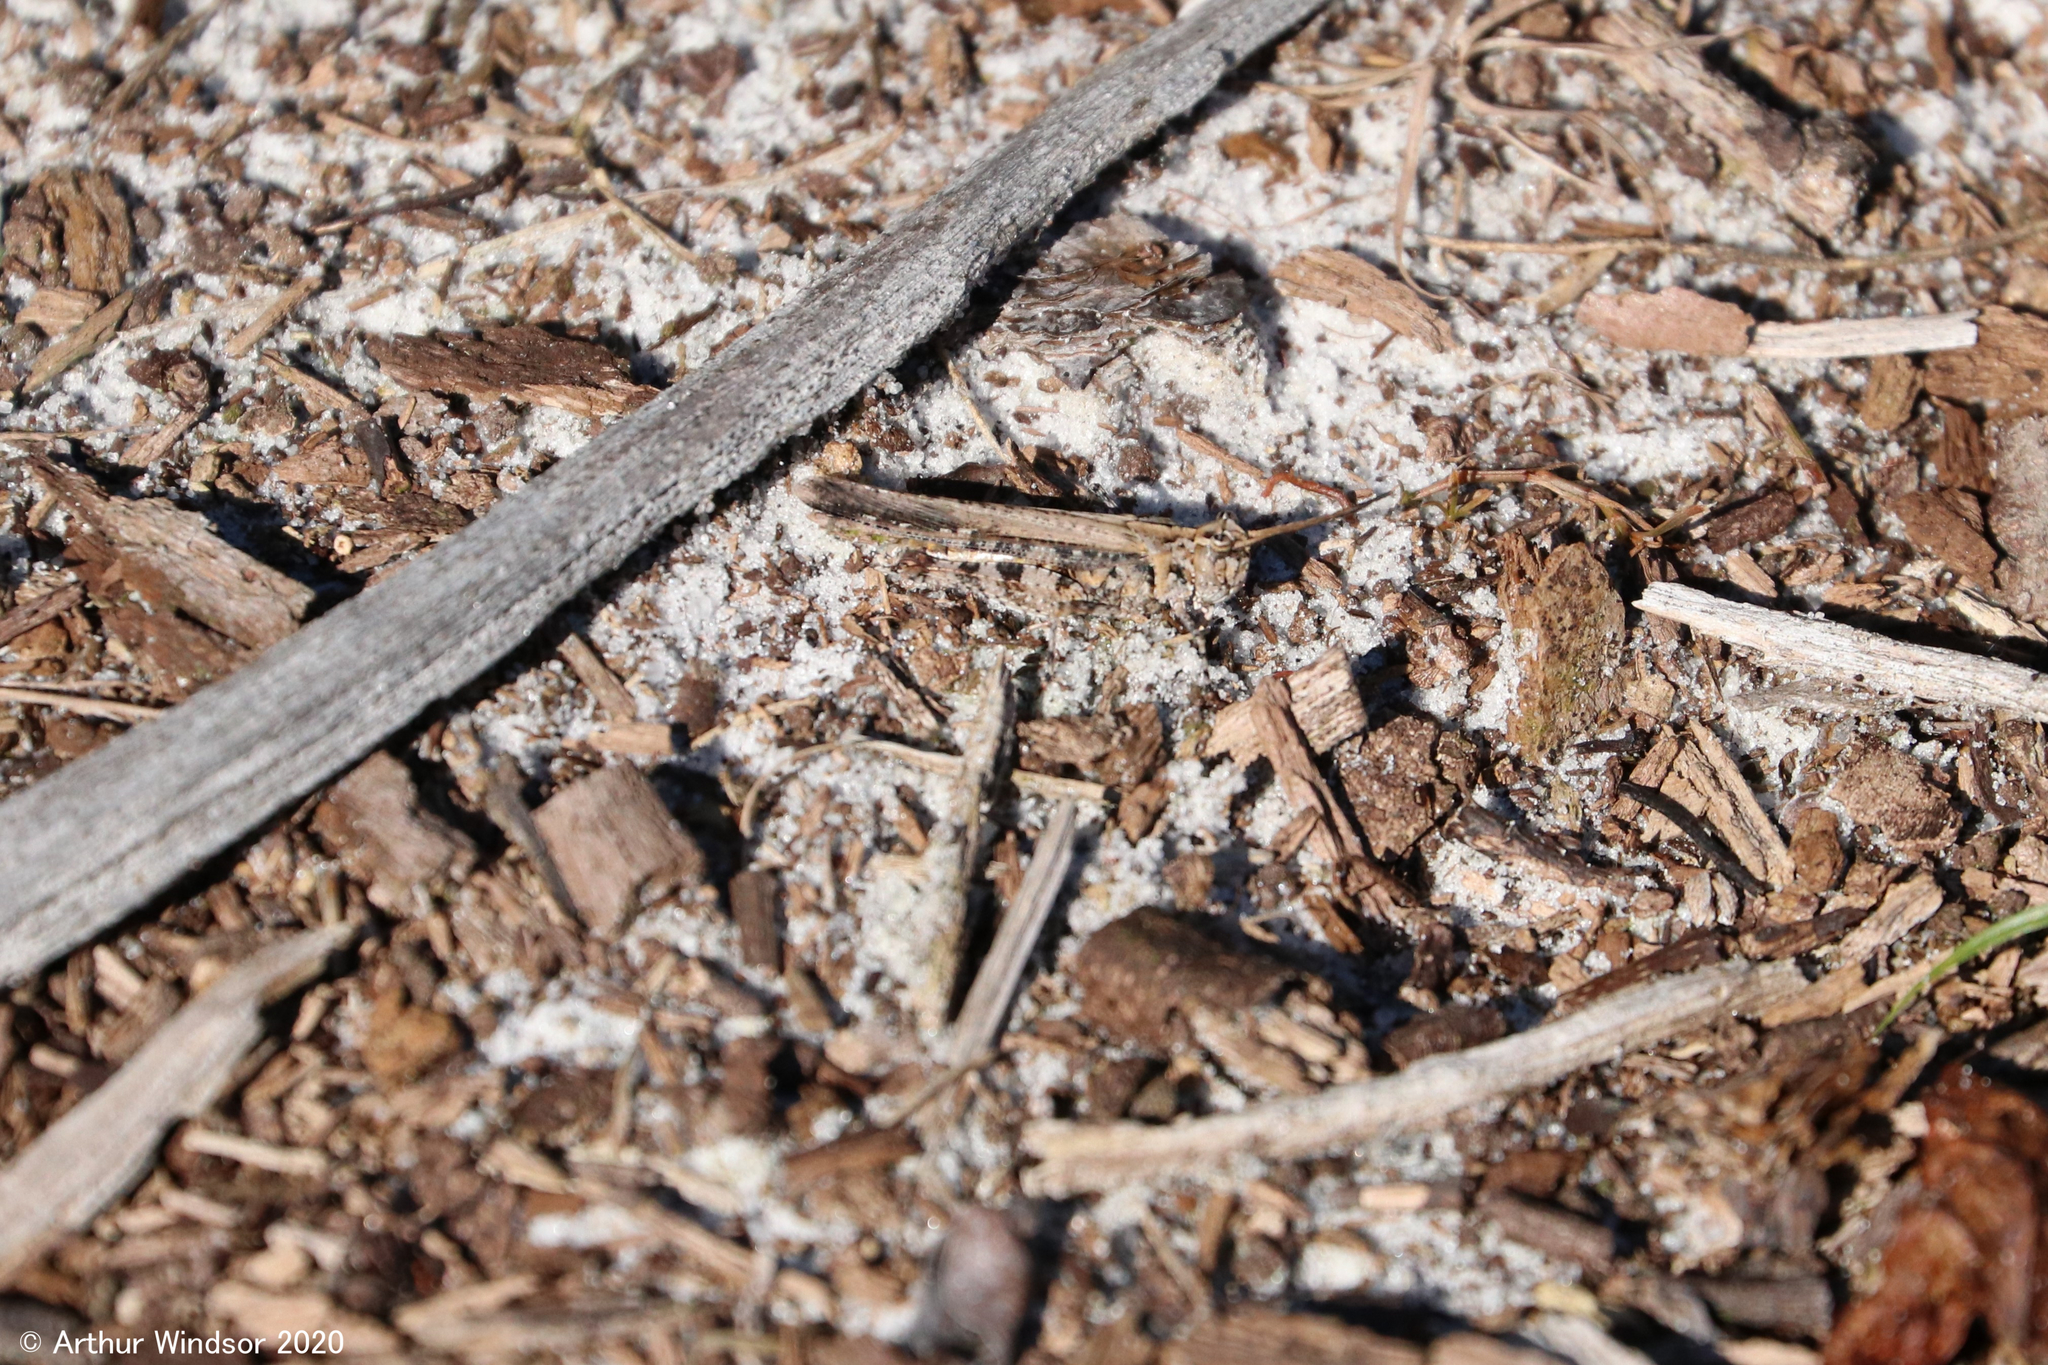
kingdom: Animalia
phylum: Arthropoda
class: Insecta
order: Orthoptera
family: Acrididae
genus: Psinidia
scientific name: Psinidia fenestralis
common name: Long-horned locust
